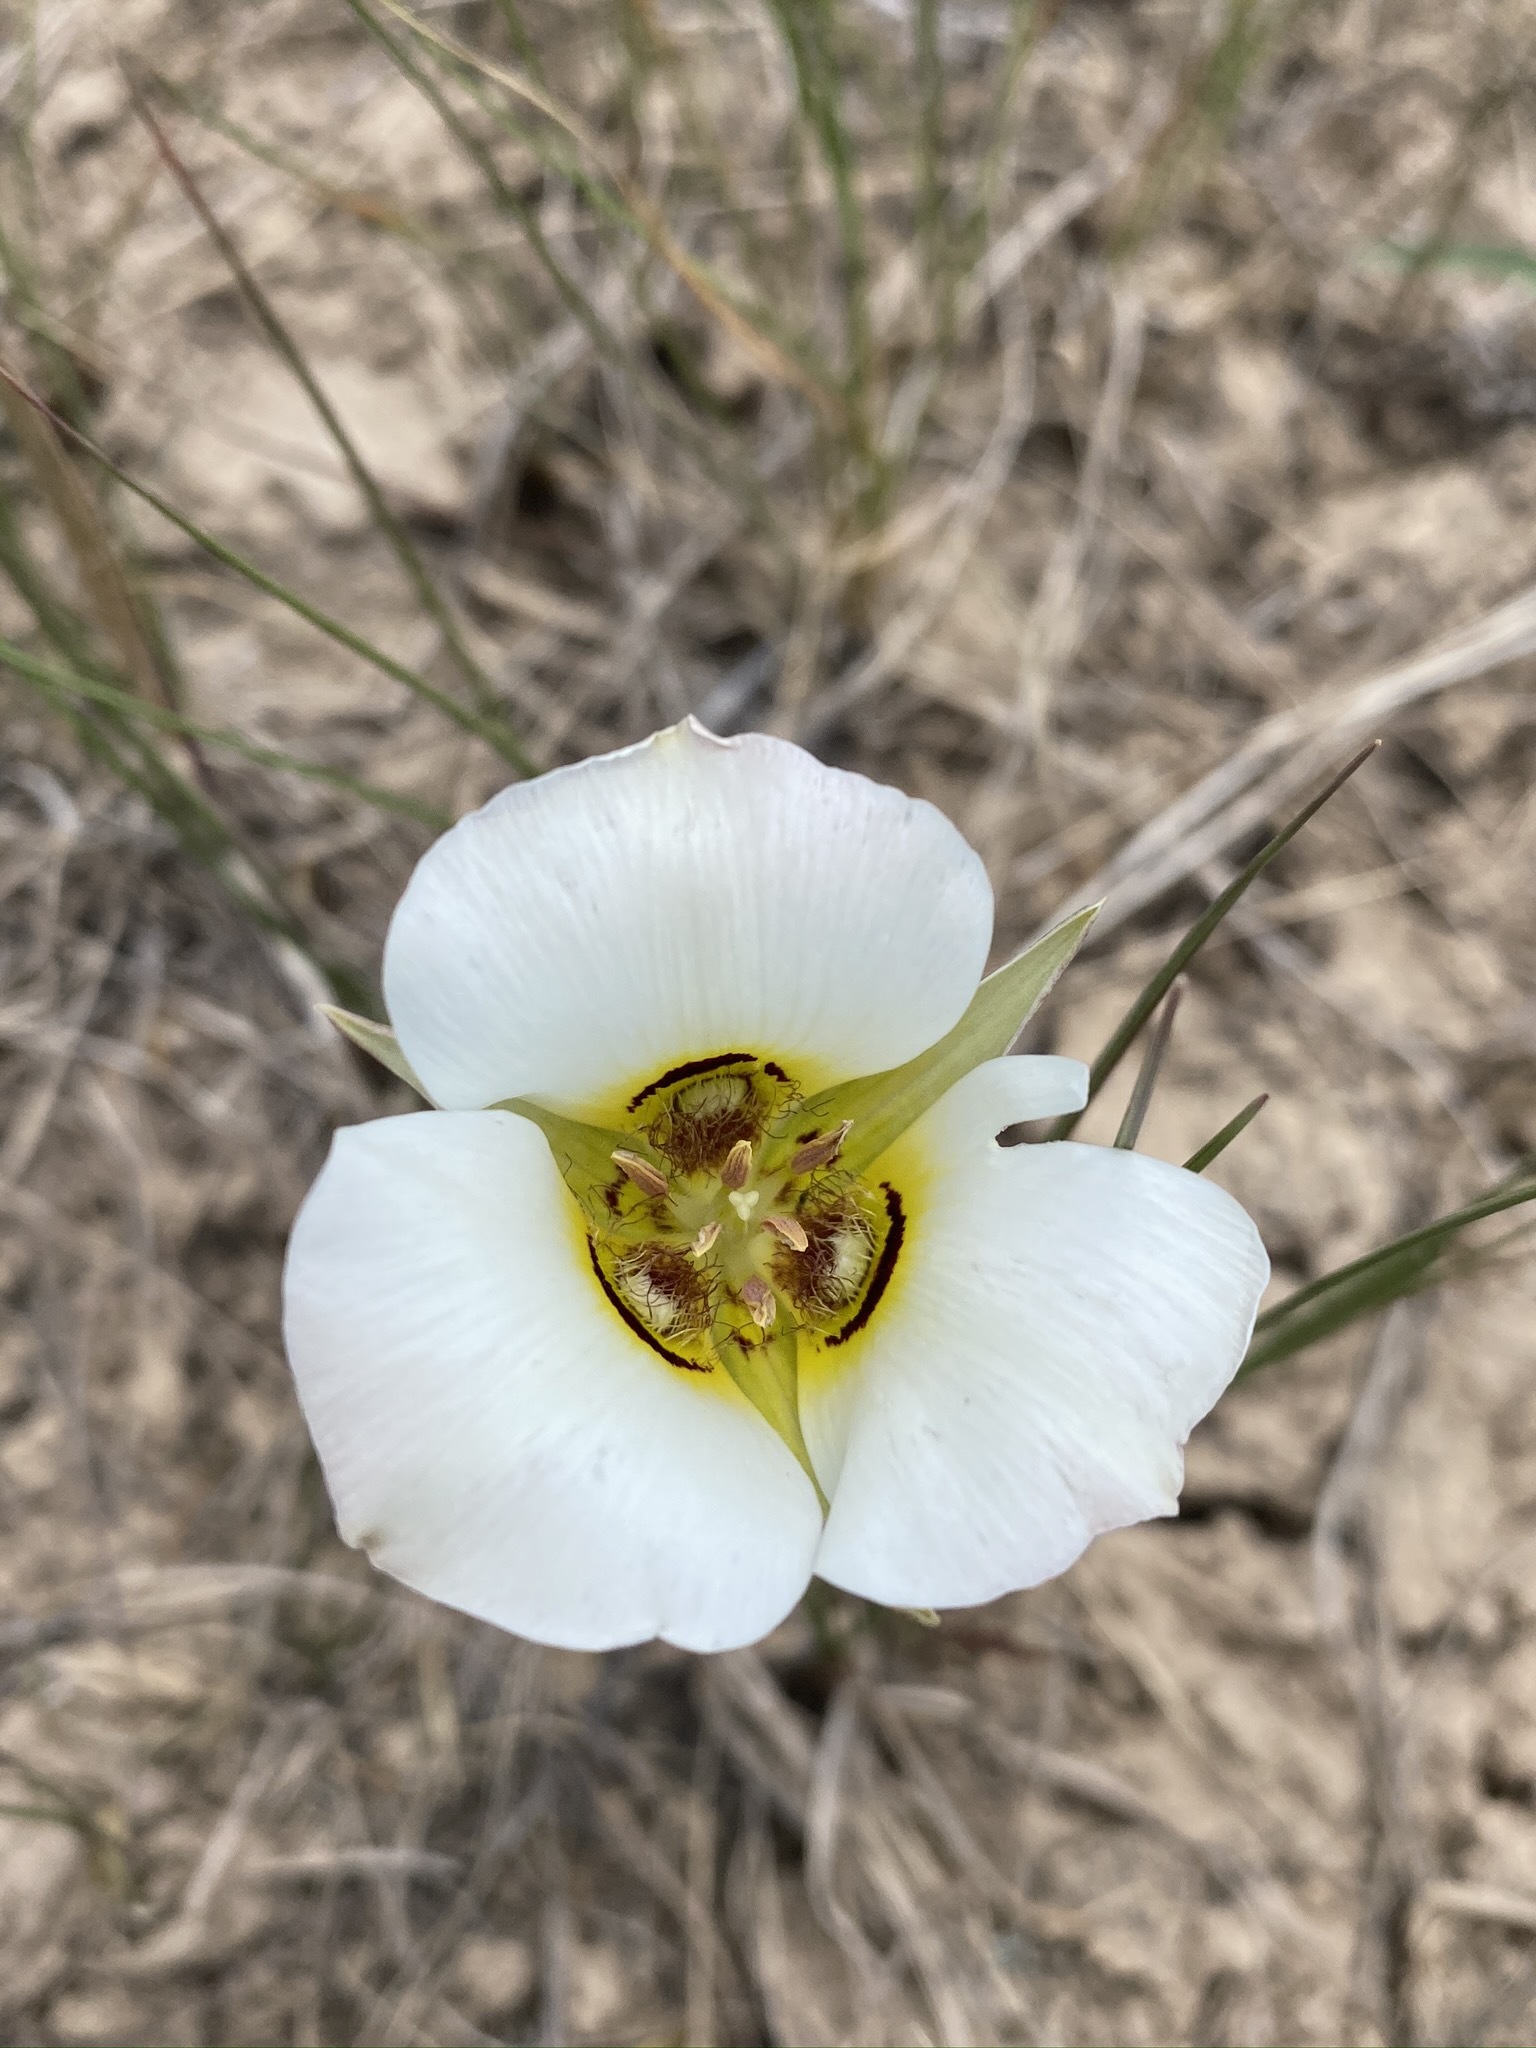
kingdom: Plantae
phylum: Tracheophyta
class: Liliopsida
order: Liliales
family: Liliaceae
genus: Calochortus
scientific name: Calochortus nuttallii
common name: Sego-lily
